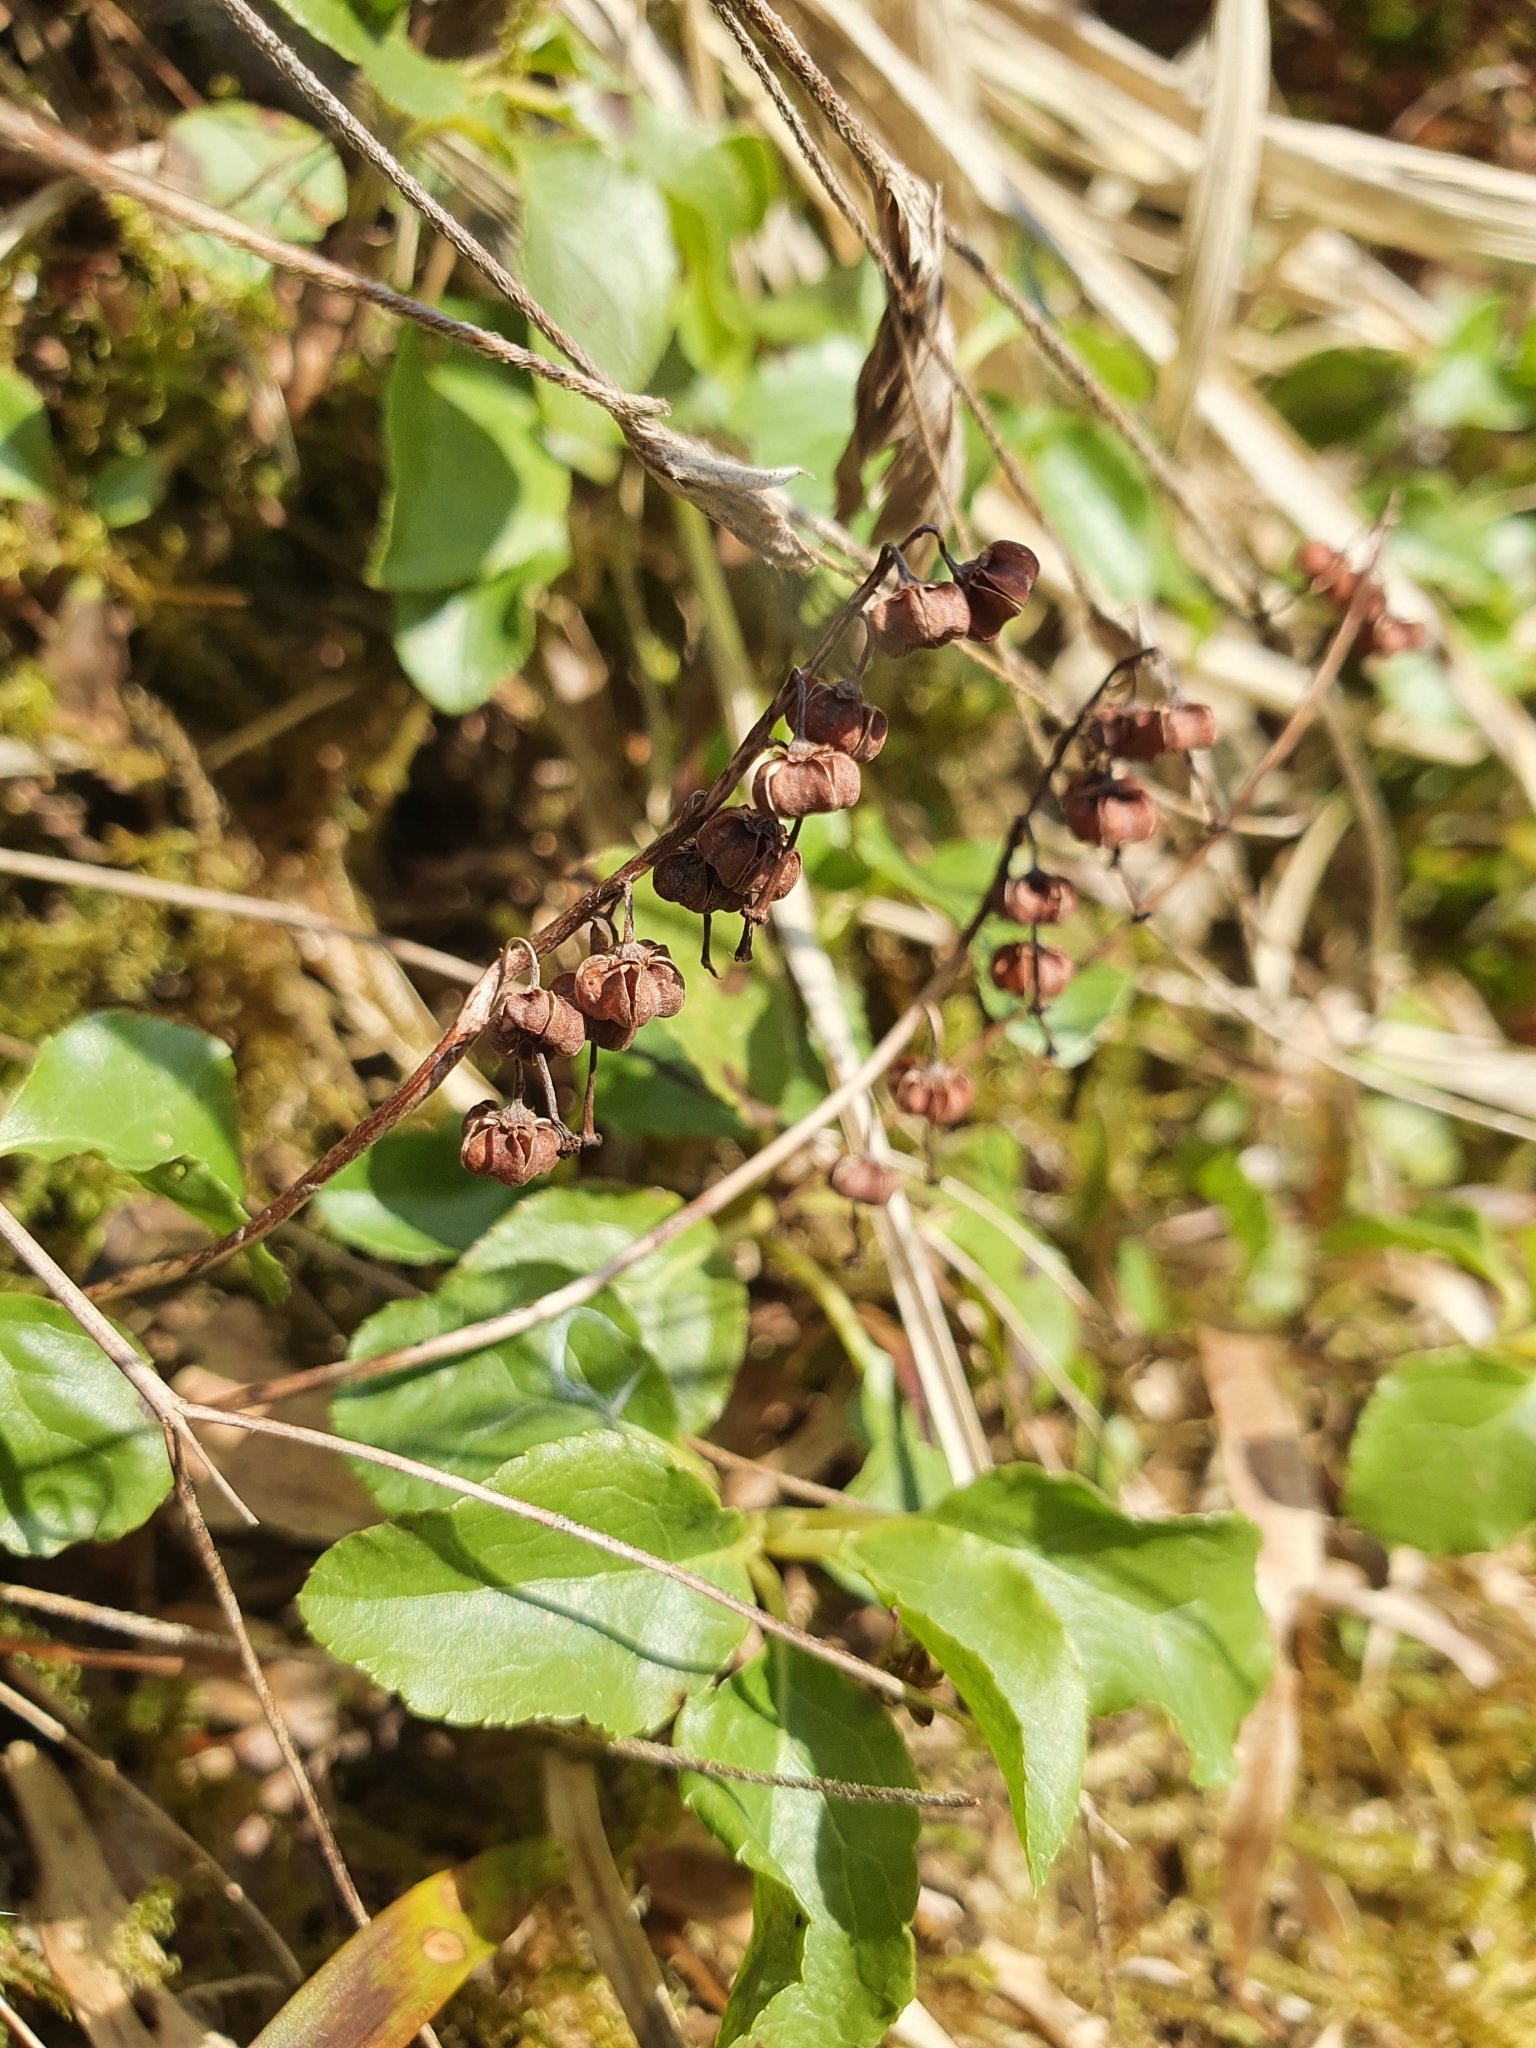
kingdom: Plantae
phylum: Tracheophyta
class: Magnoliopsida
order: Ericales
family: Ericaceae
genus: Orthilia
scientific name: Orthilia secunda
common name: One-sided orthilia
